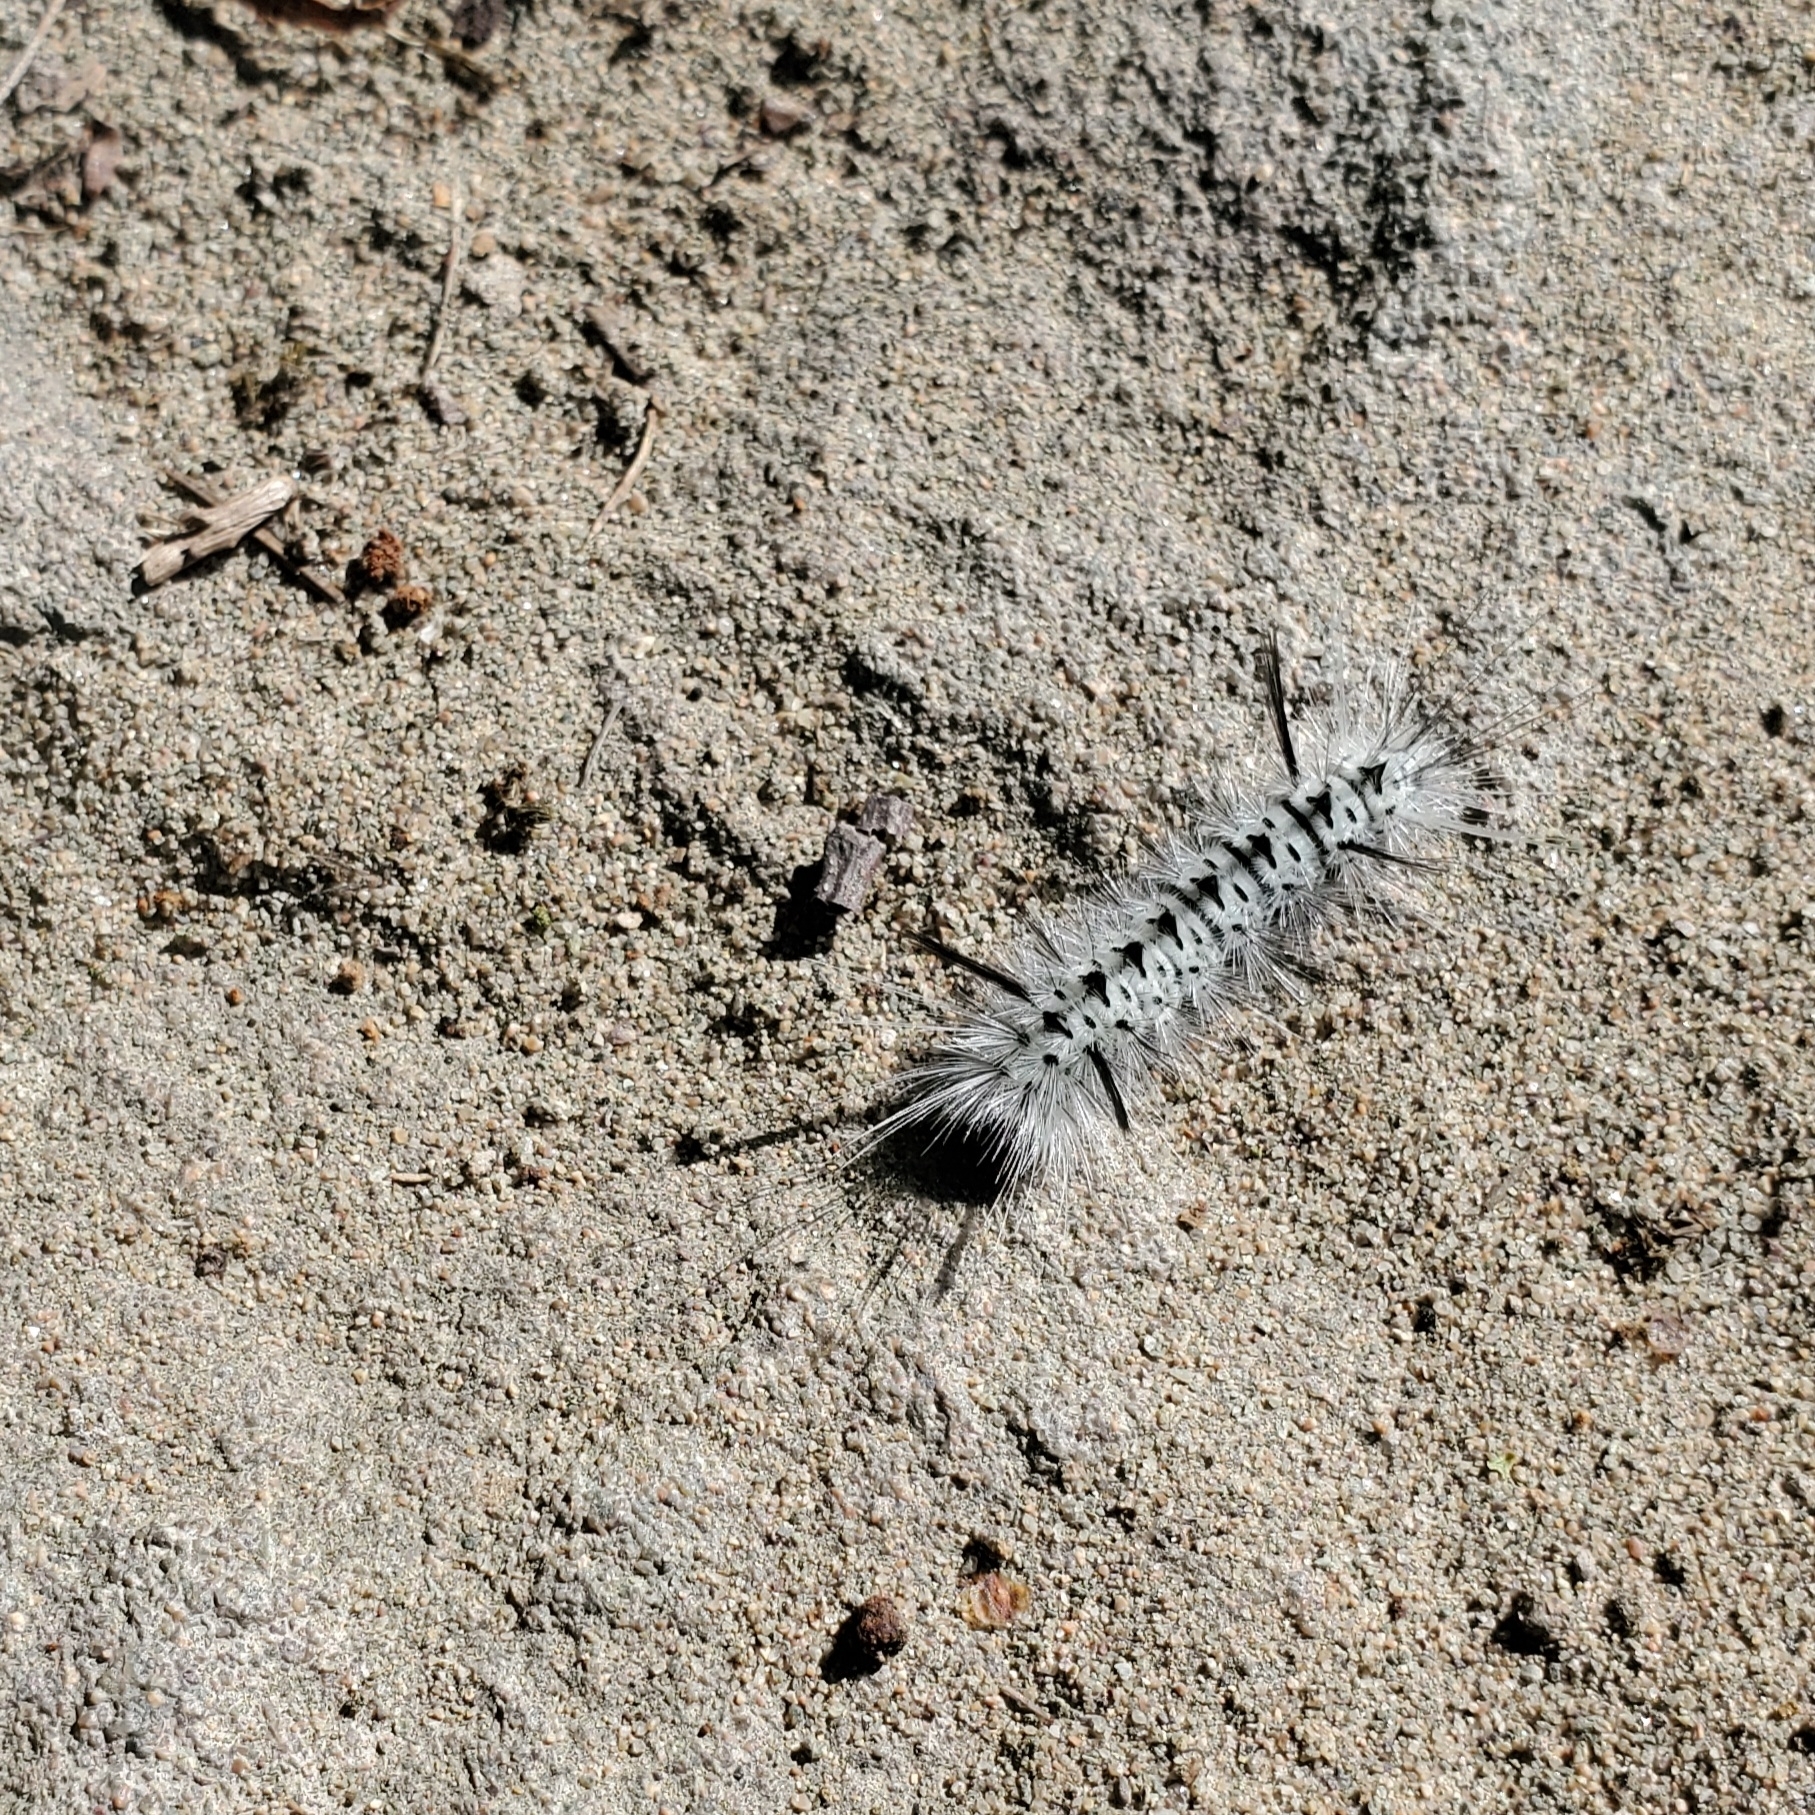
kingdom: Animalia
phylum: Arthropoda
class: Insecta
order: Lepidoptera
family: Erebidae
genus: Lophocampa
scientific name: Lophocampa caryae
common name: Hickory tussock moth
